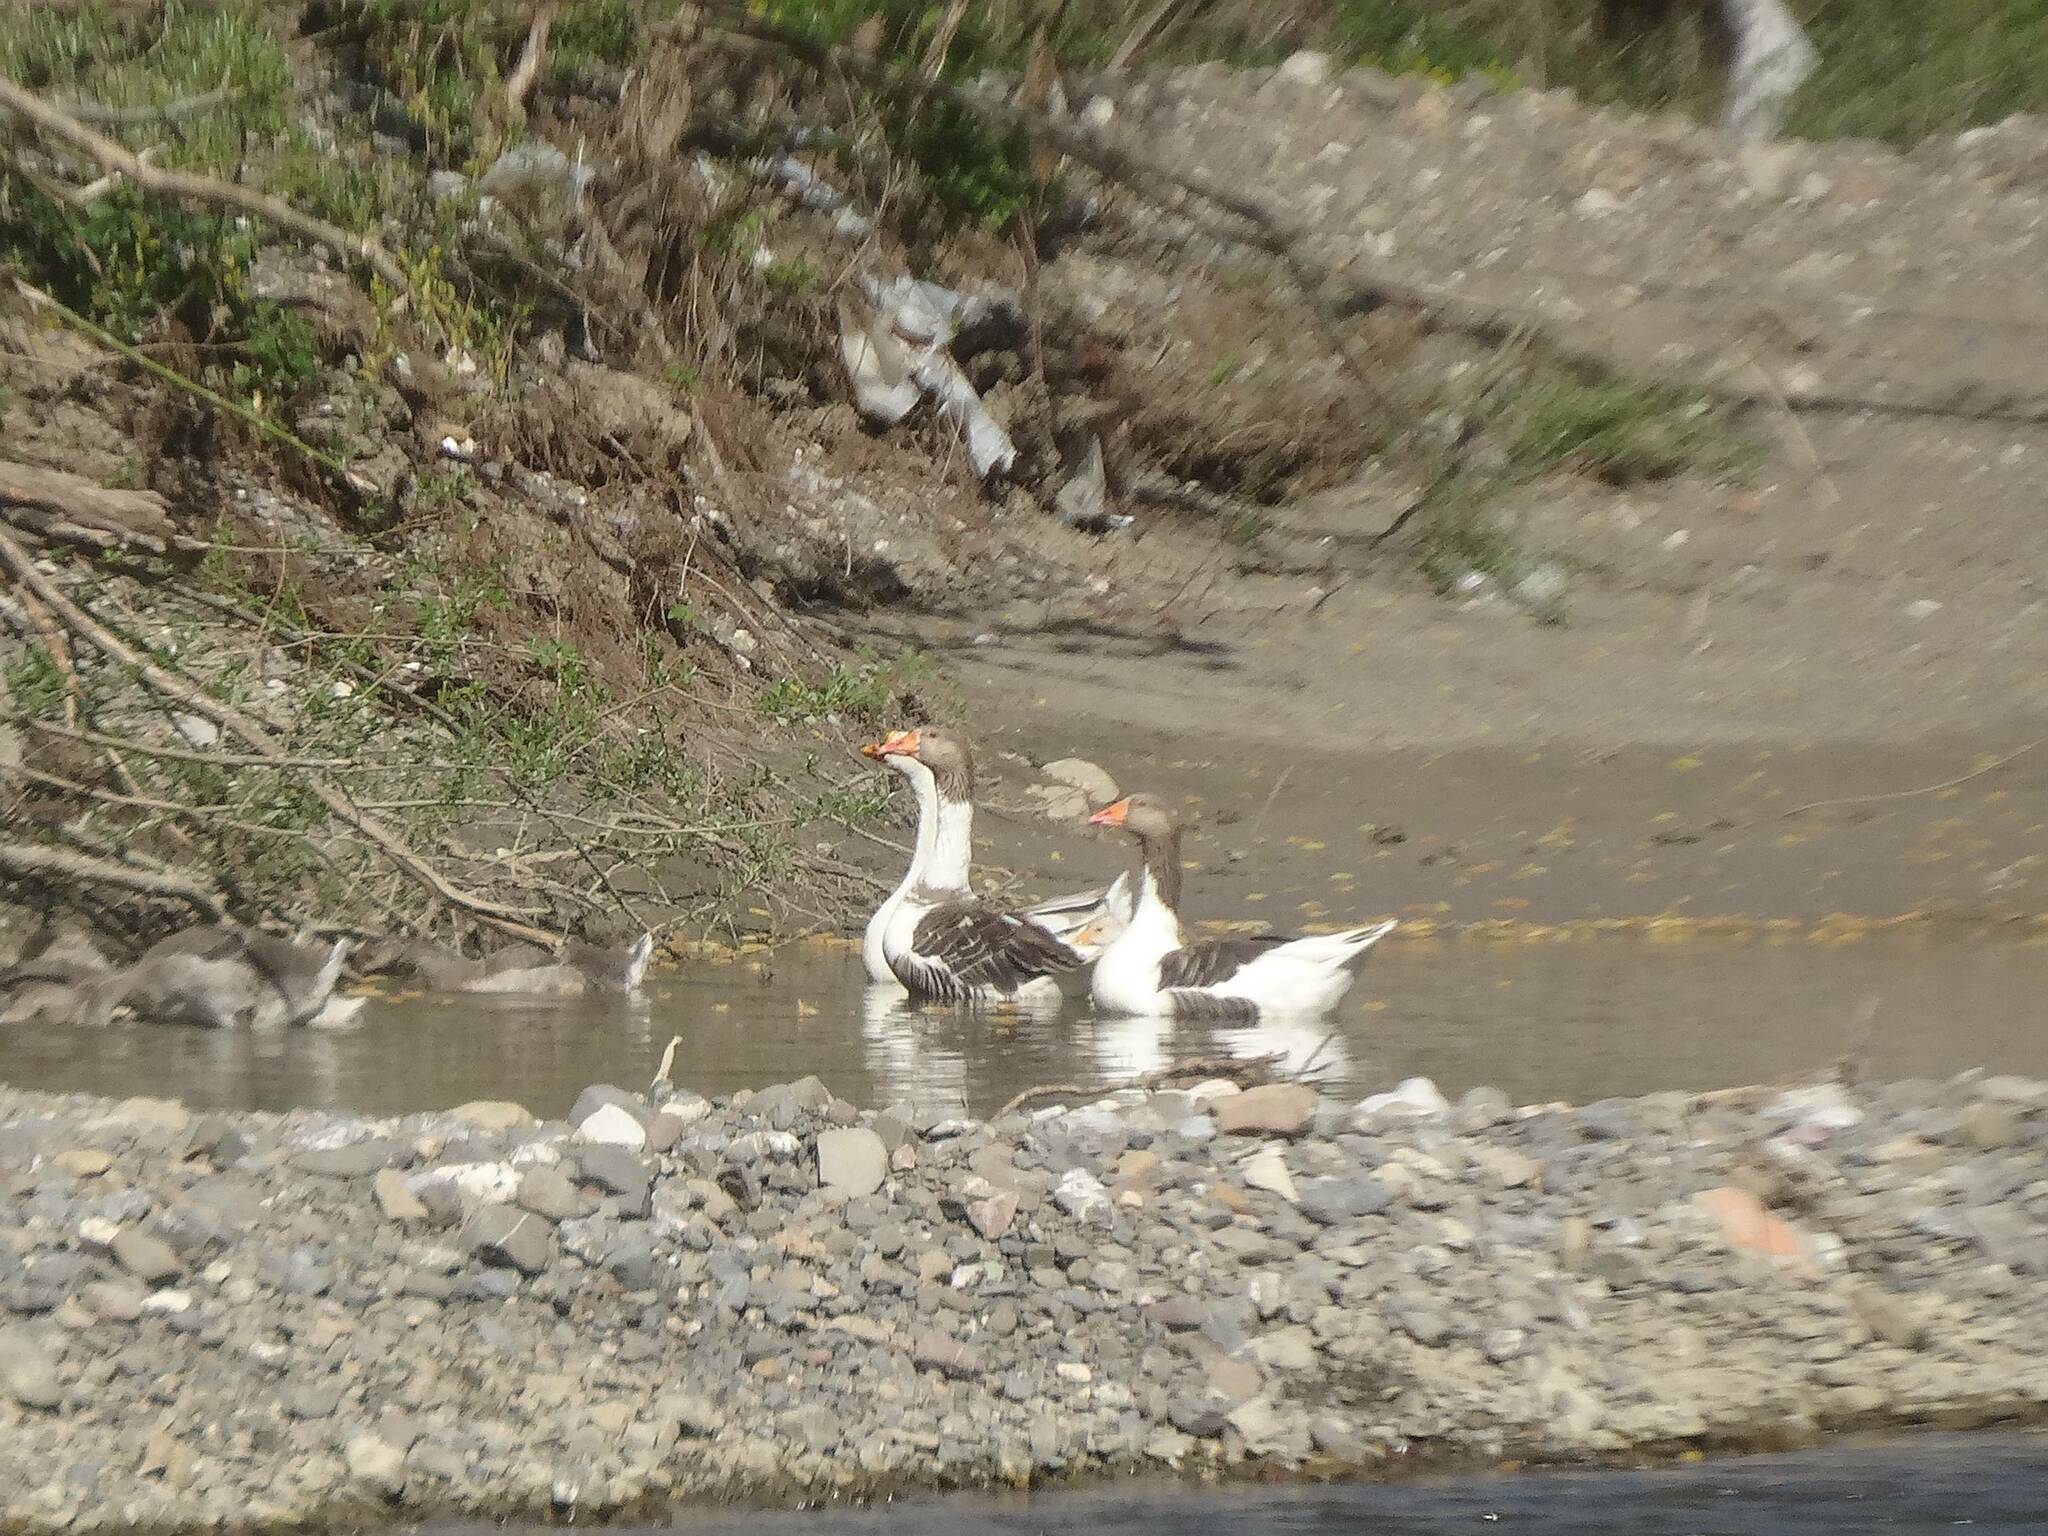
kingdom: Animalia
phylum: Chordata
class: Aves
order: Anseriformes
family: Anatidae
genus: Anser
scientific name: Anser
